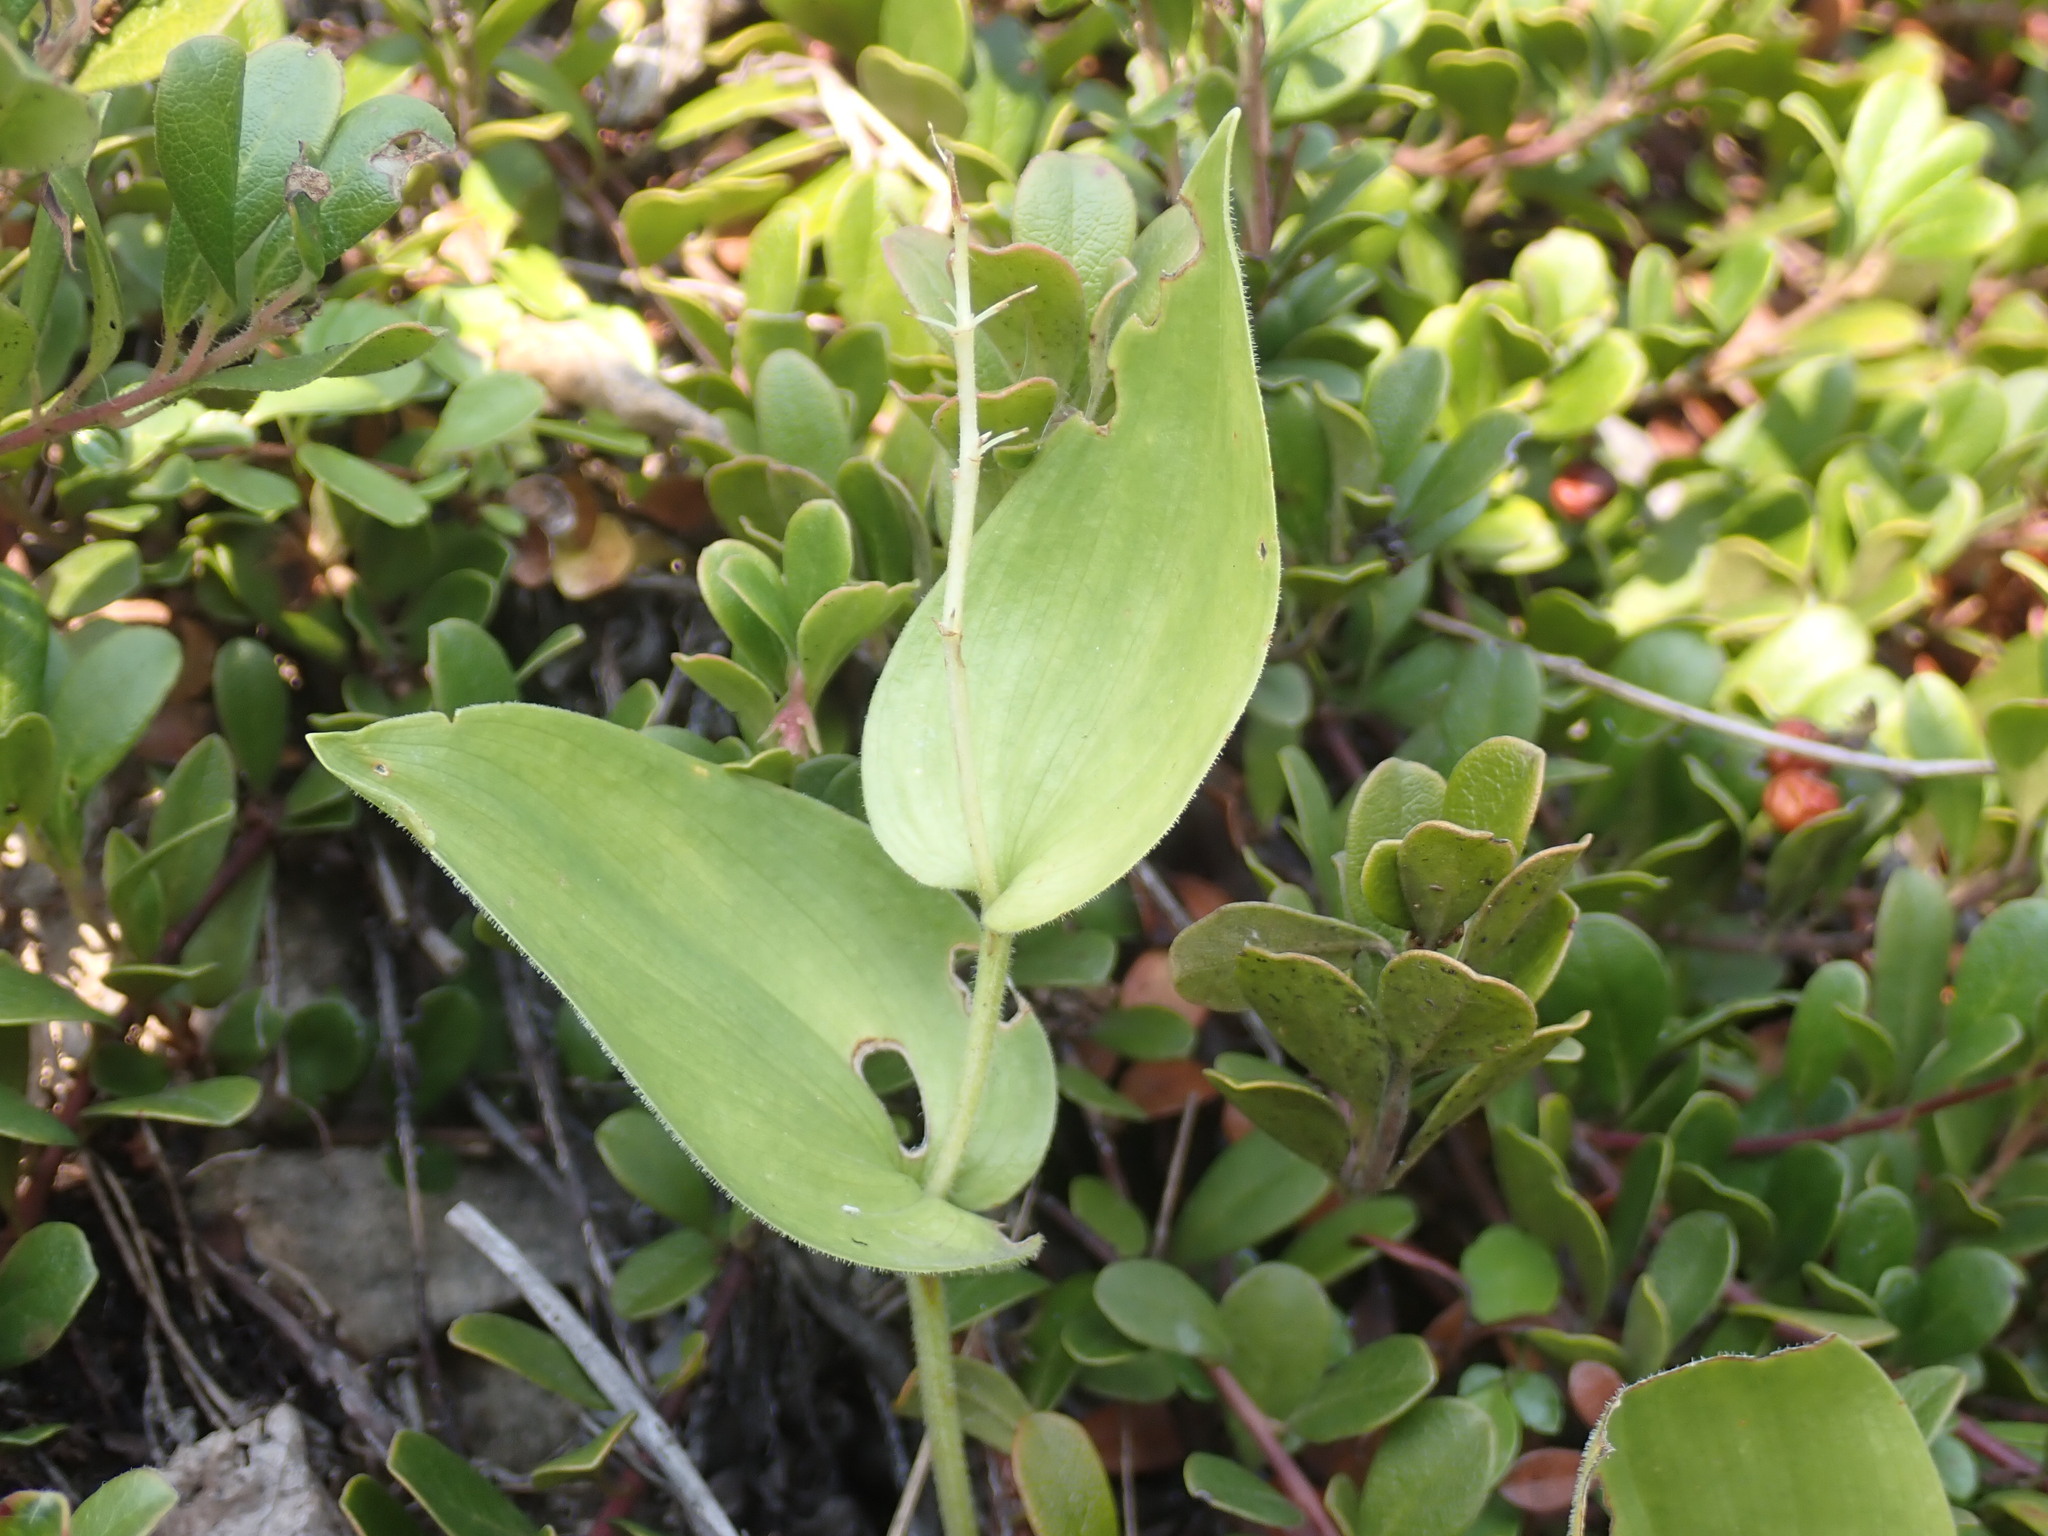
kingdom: Plantae
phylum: Tracheophyta
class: Liliopsida
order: Asparagales
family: Asparagaceae
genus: Maianthemum
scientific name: Maianthemum canadense
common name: False lily-of-the-valley
